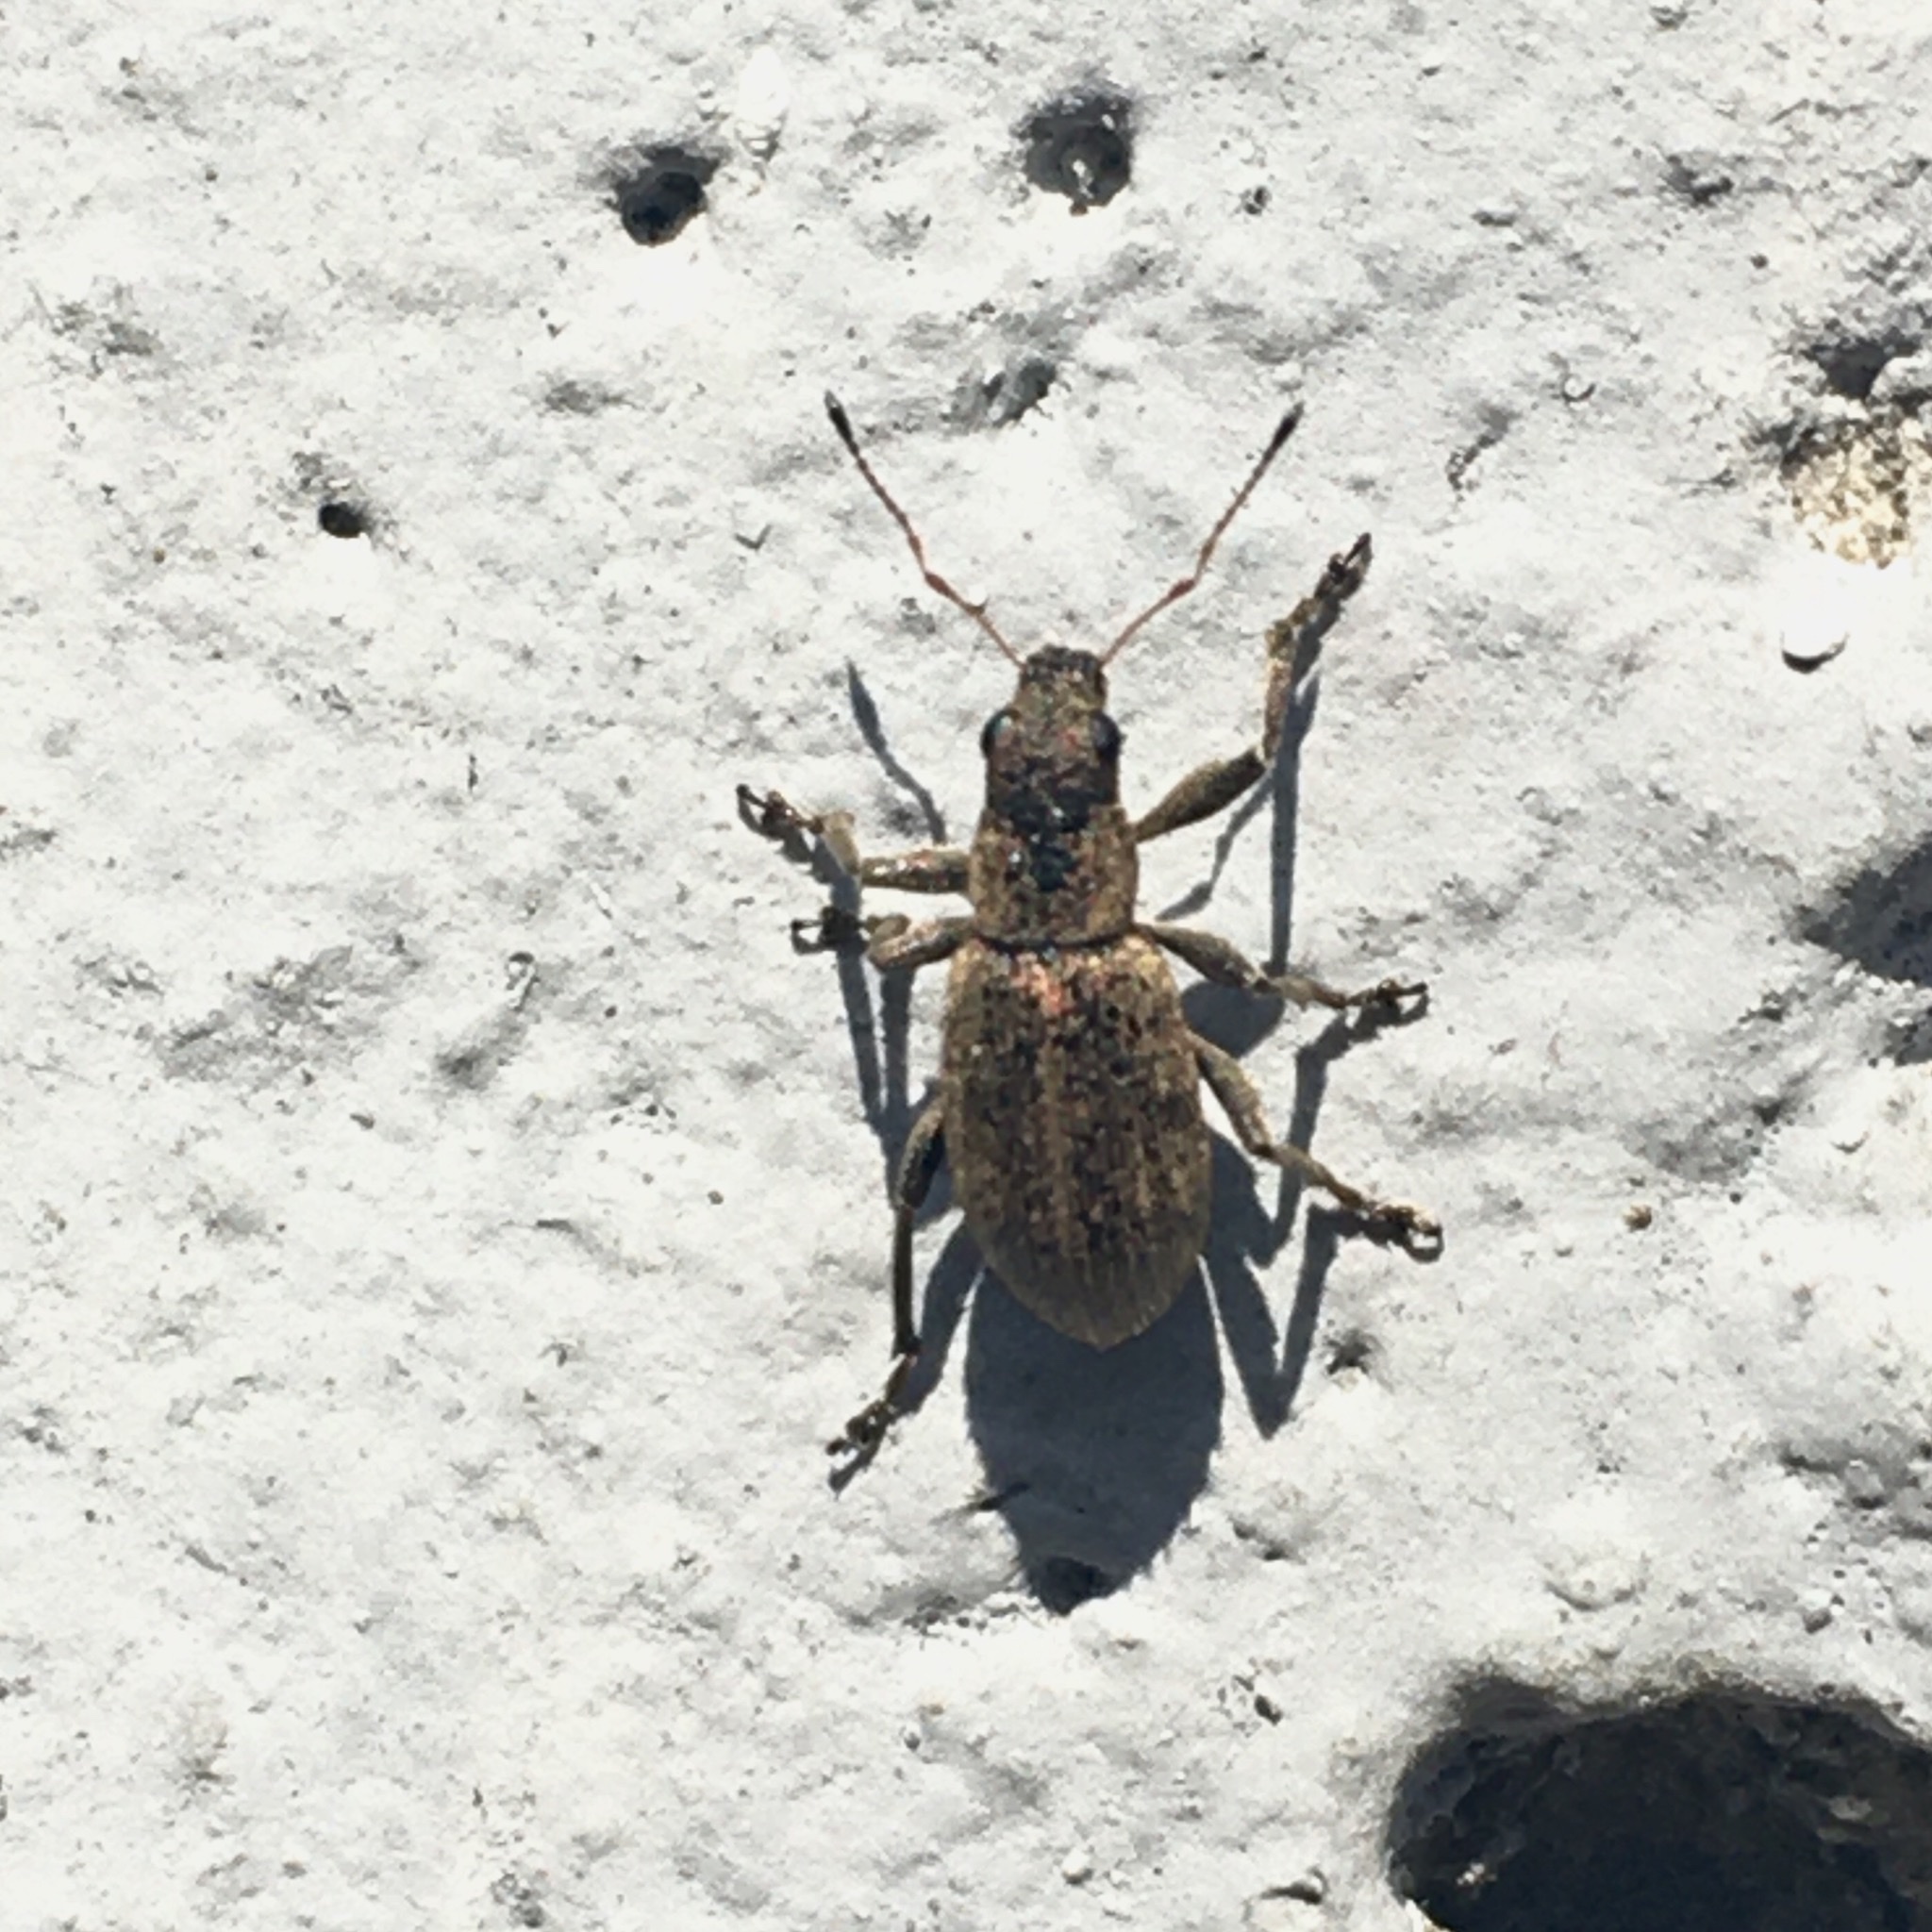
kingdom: Animalia
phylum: Arthropoda
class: Insecta
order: Coleoptera
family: Curculionidae
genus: Polydrusus
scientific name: Polydrusus inustus
